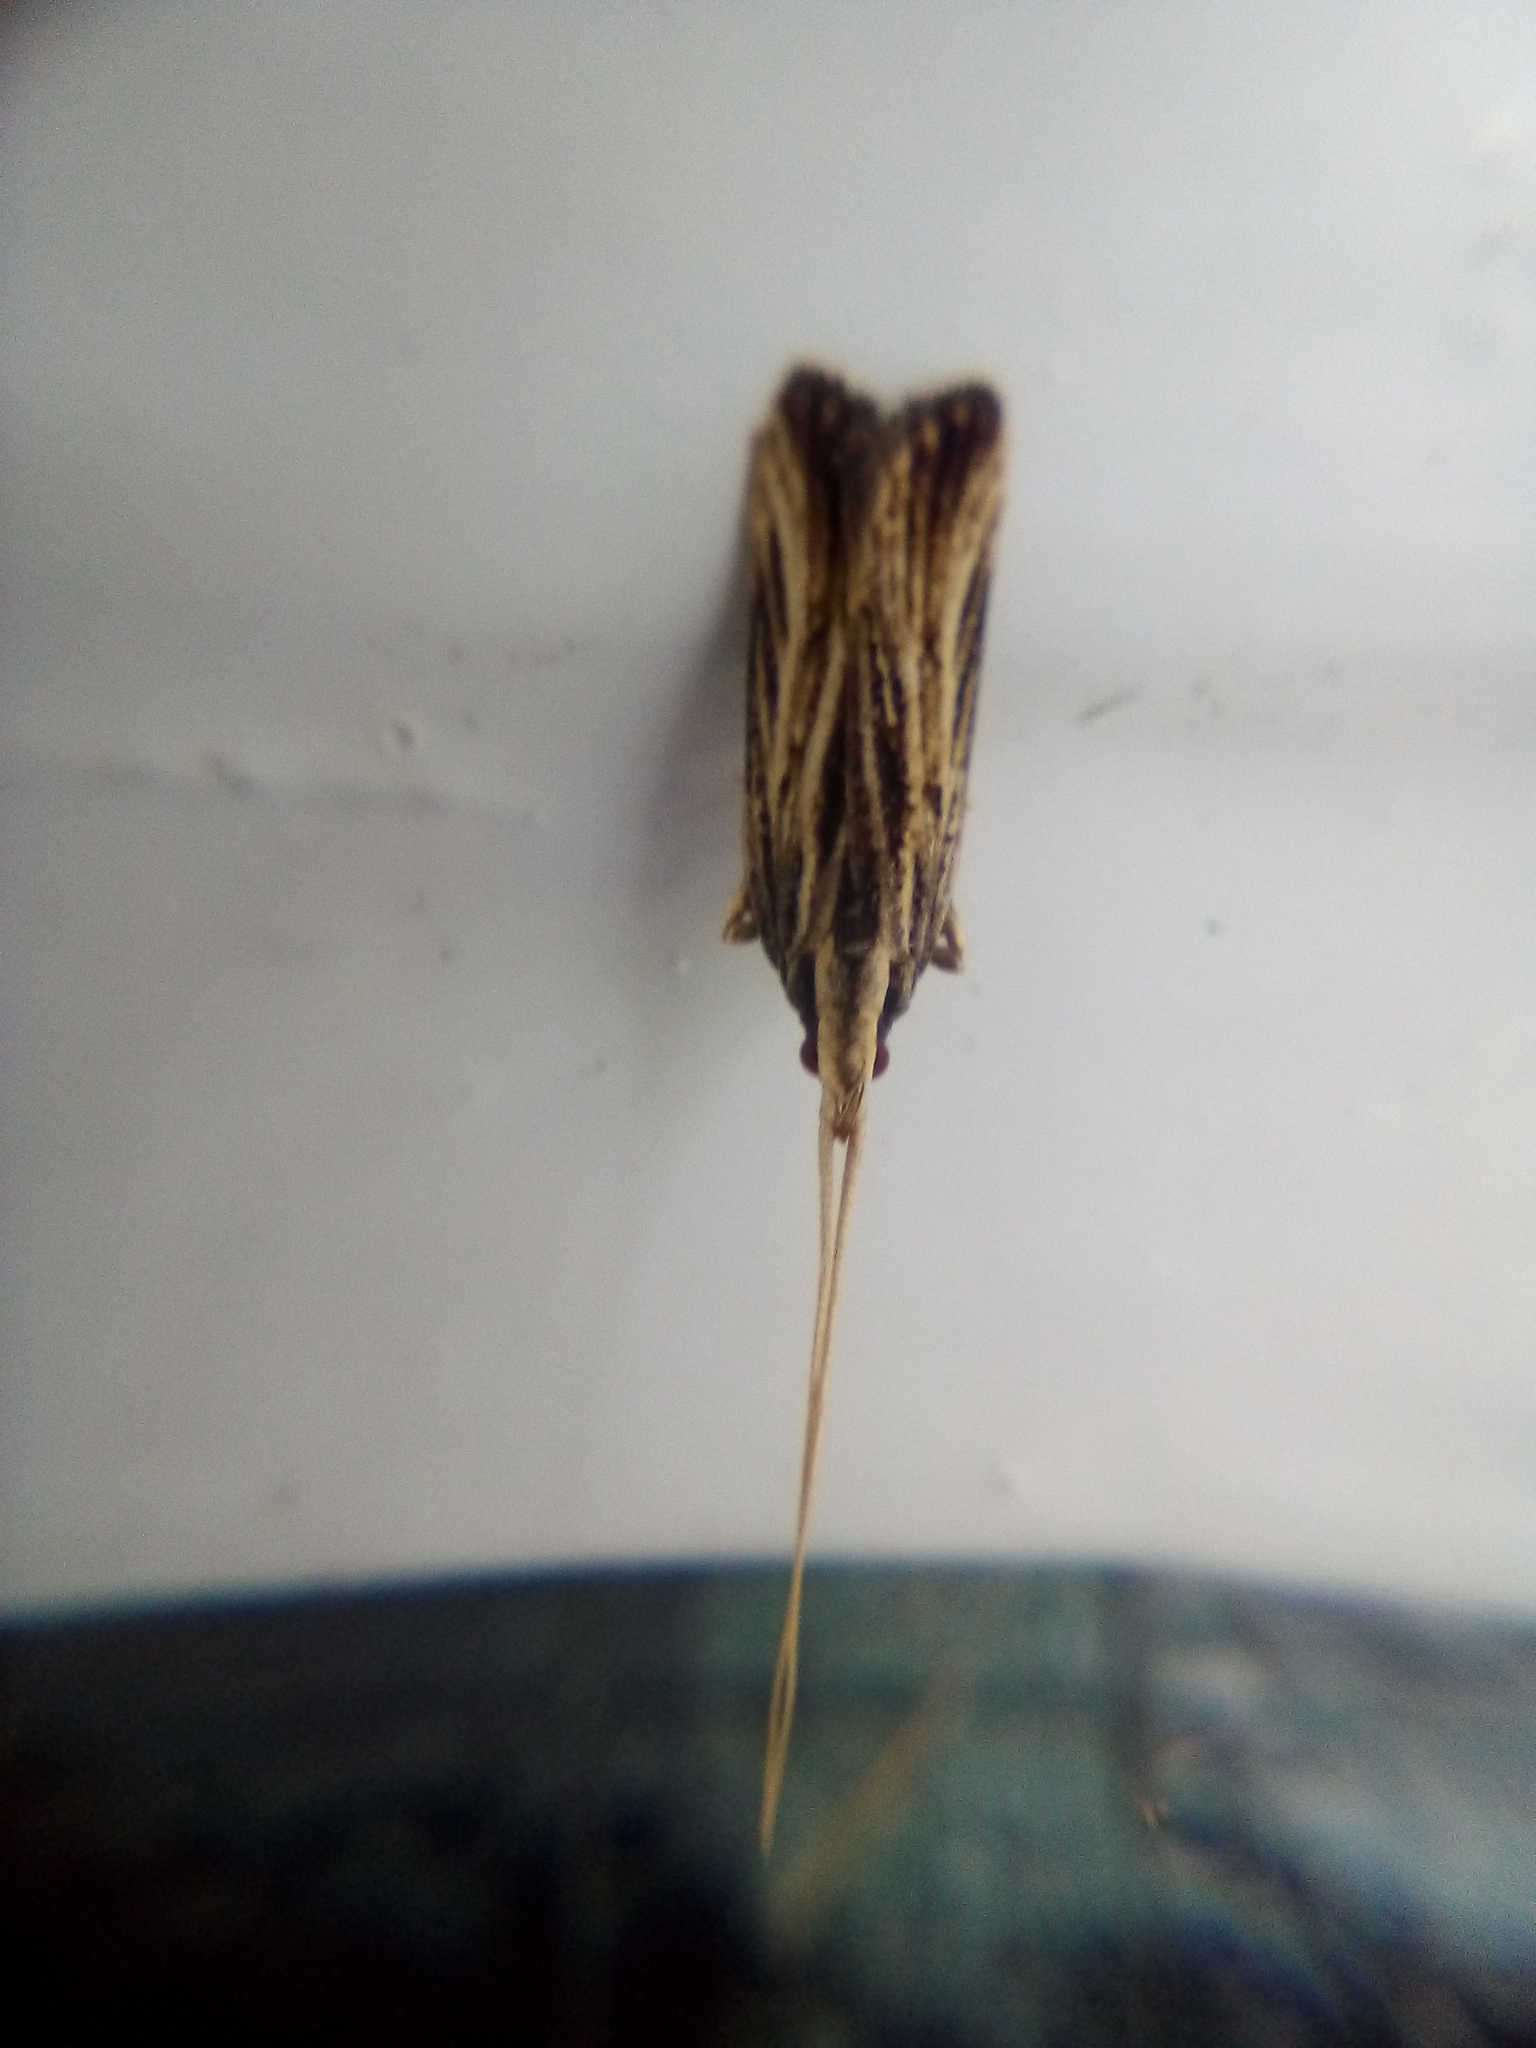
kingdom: Animalia
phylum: Arthropoda
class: Insecta
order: Lepidoptera
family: Lecithoceridae
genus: Sarisophora
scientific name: Sarisophora leucoscia
